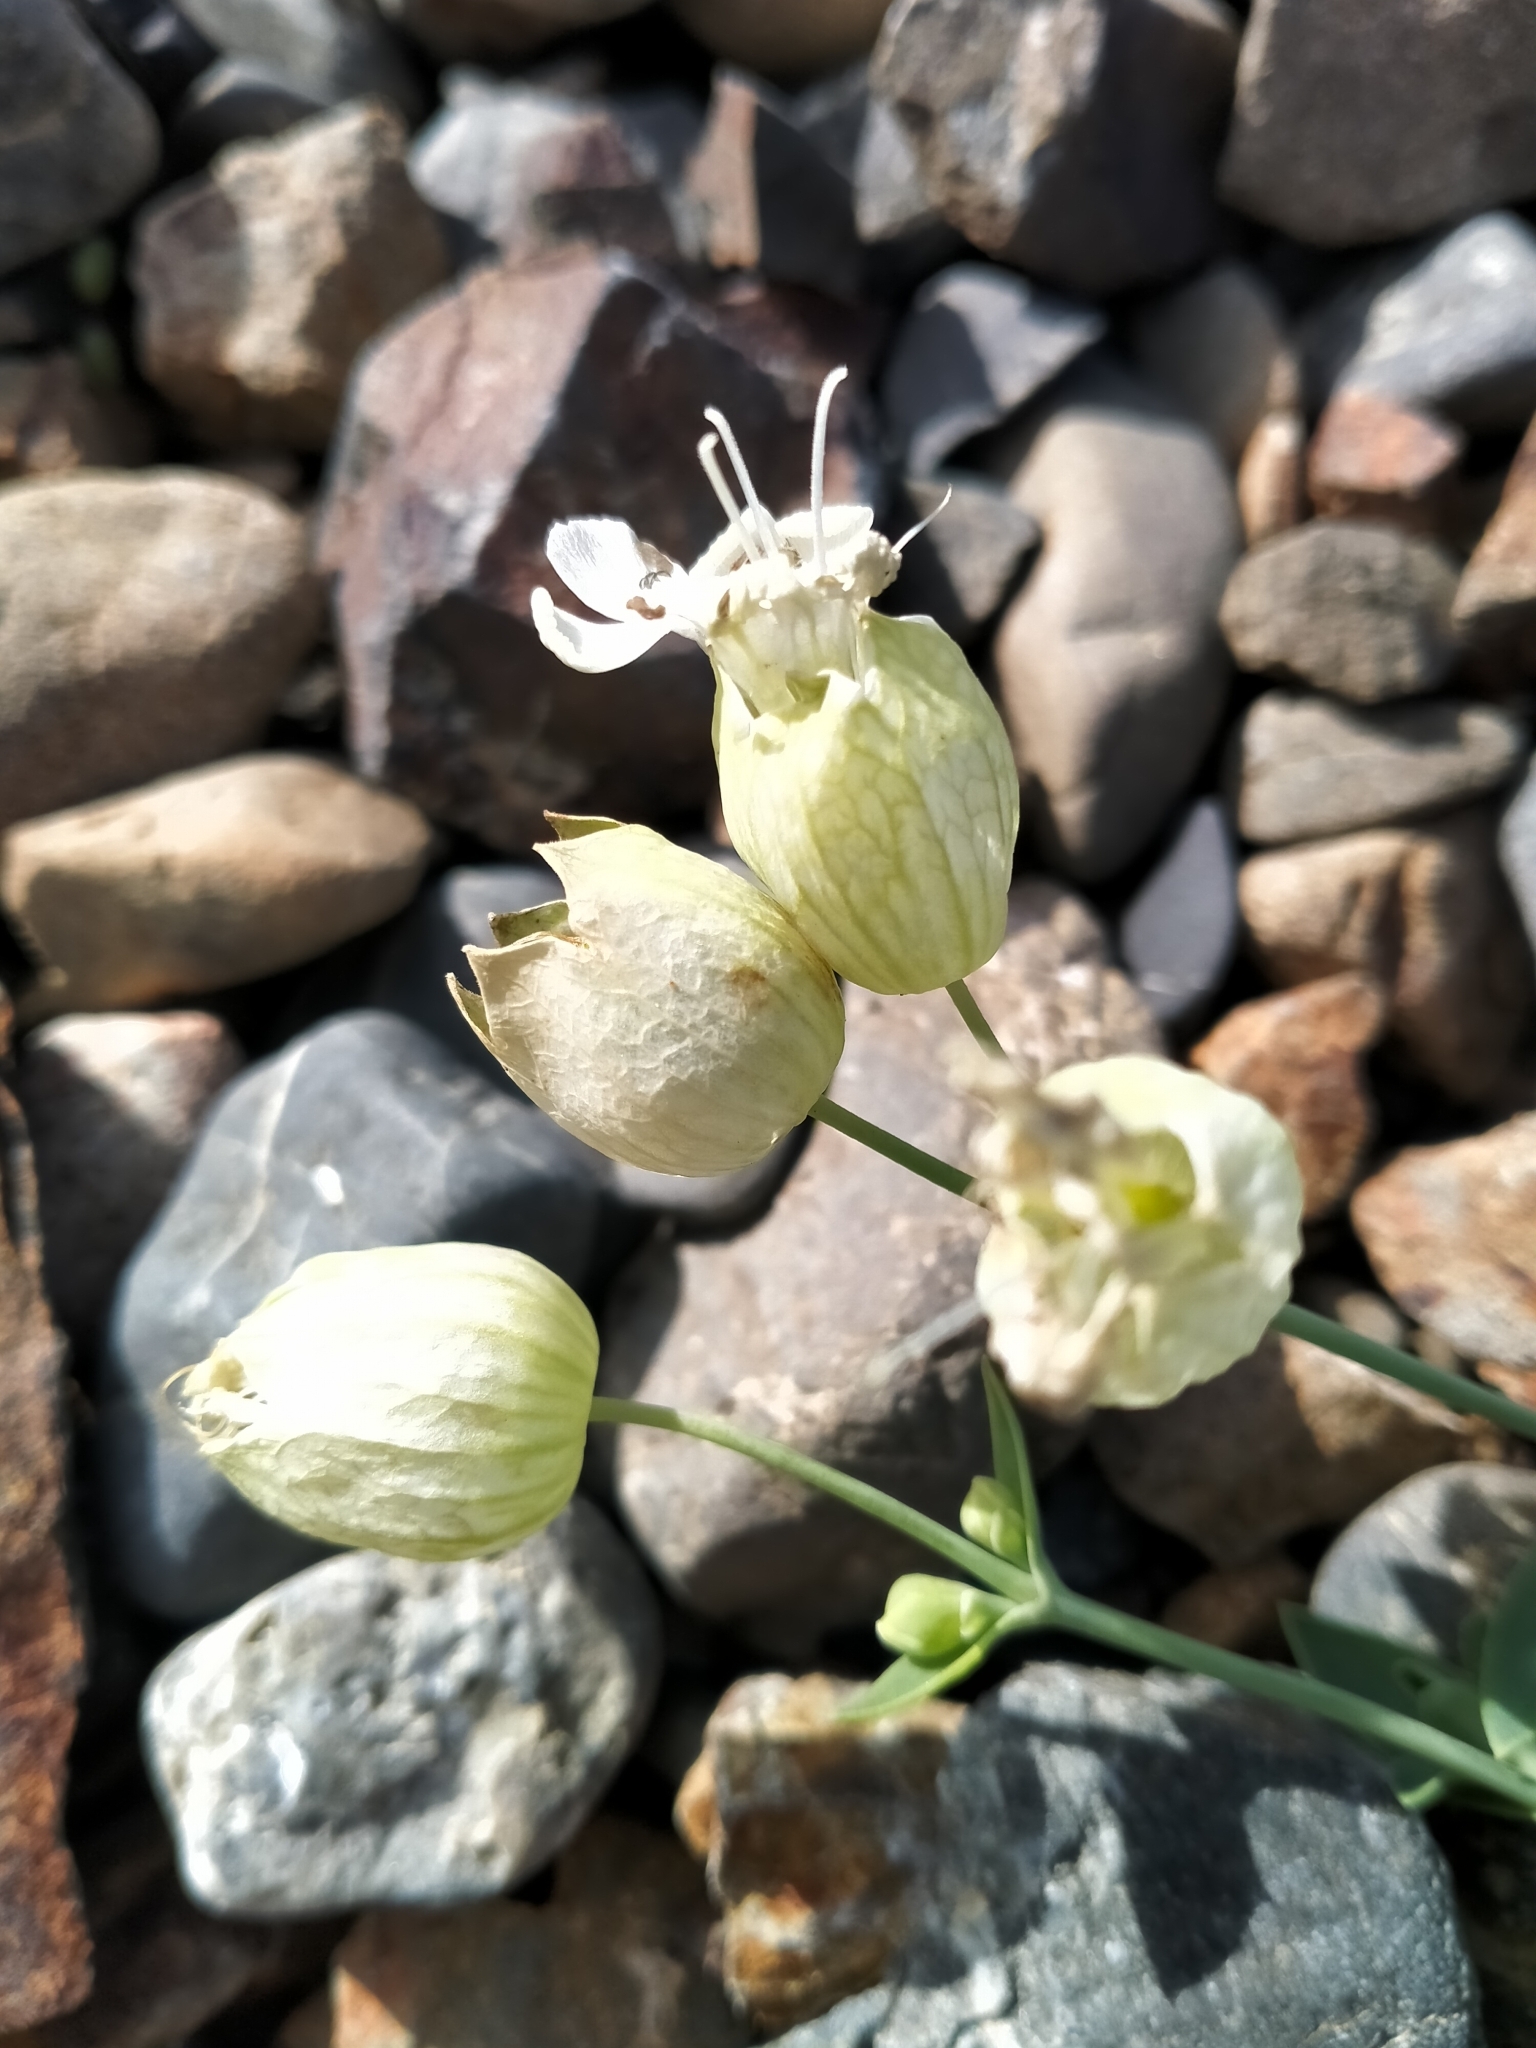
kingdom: Plantae
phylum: Tracheophyta
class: Magnoliopsida
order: Caryophyllales
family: Caryophyllaceae
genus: Silene
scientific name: Silene vulgaris
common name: Bladder campion
